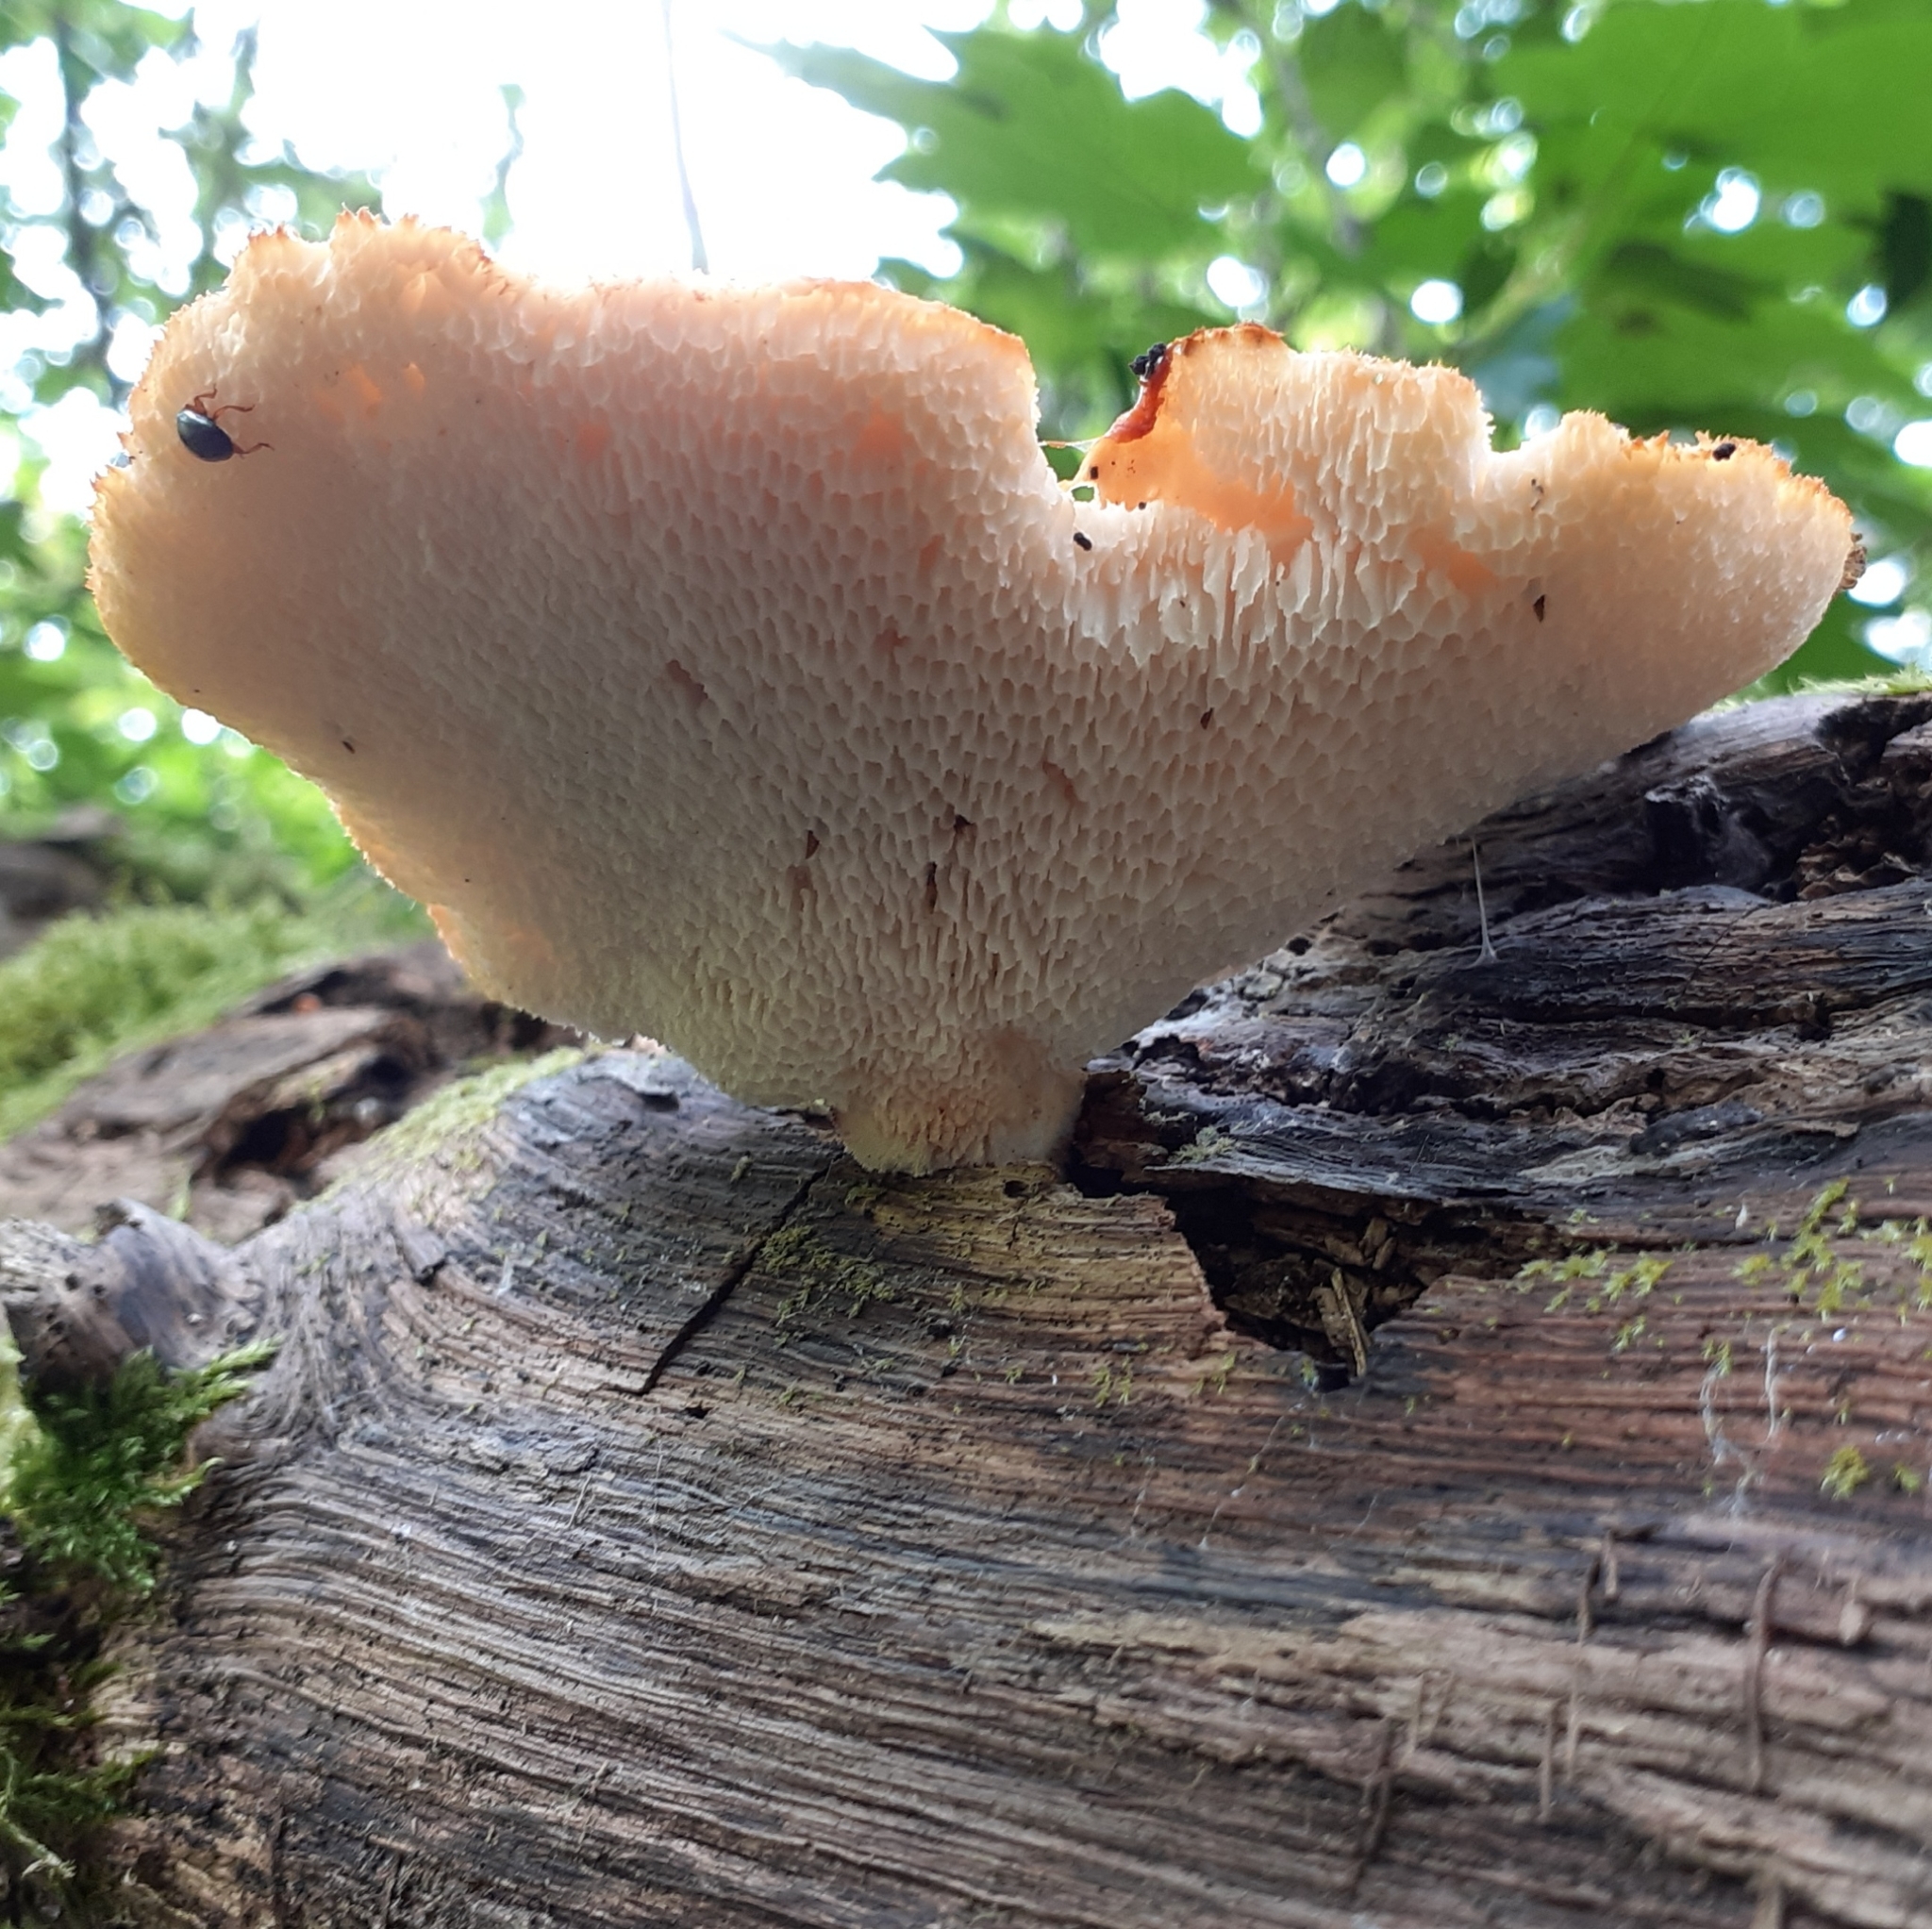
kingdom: Fungi
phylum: Basidiomycota
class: Agaricomycetes
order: Polyporales
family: Polyporaceae
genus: Polyporus
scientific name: Polyporus tuberaster
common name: Tuberous polypore
